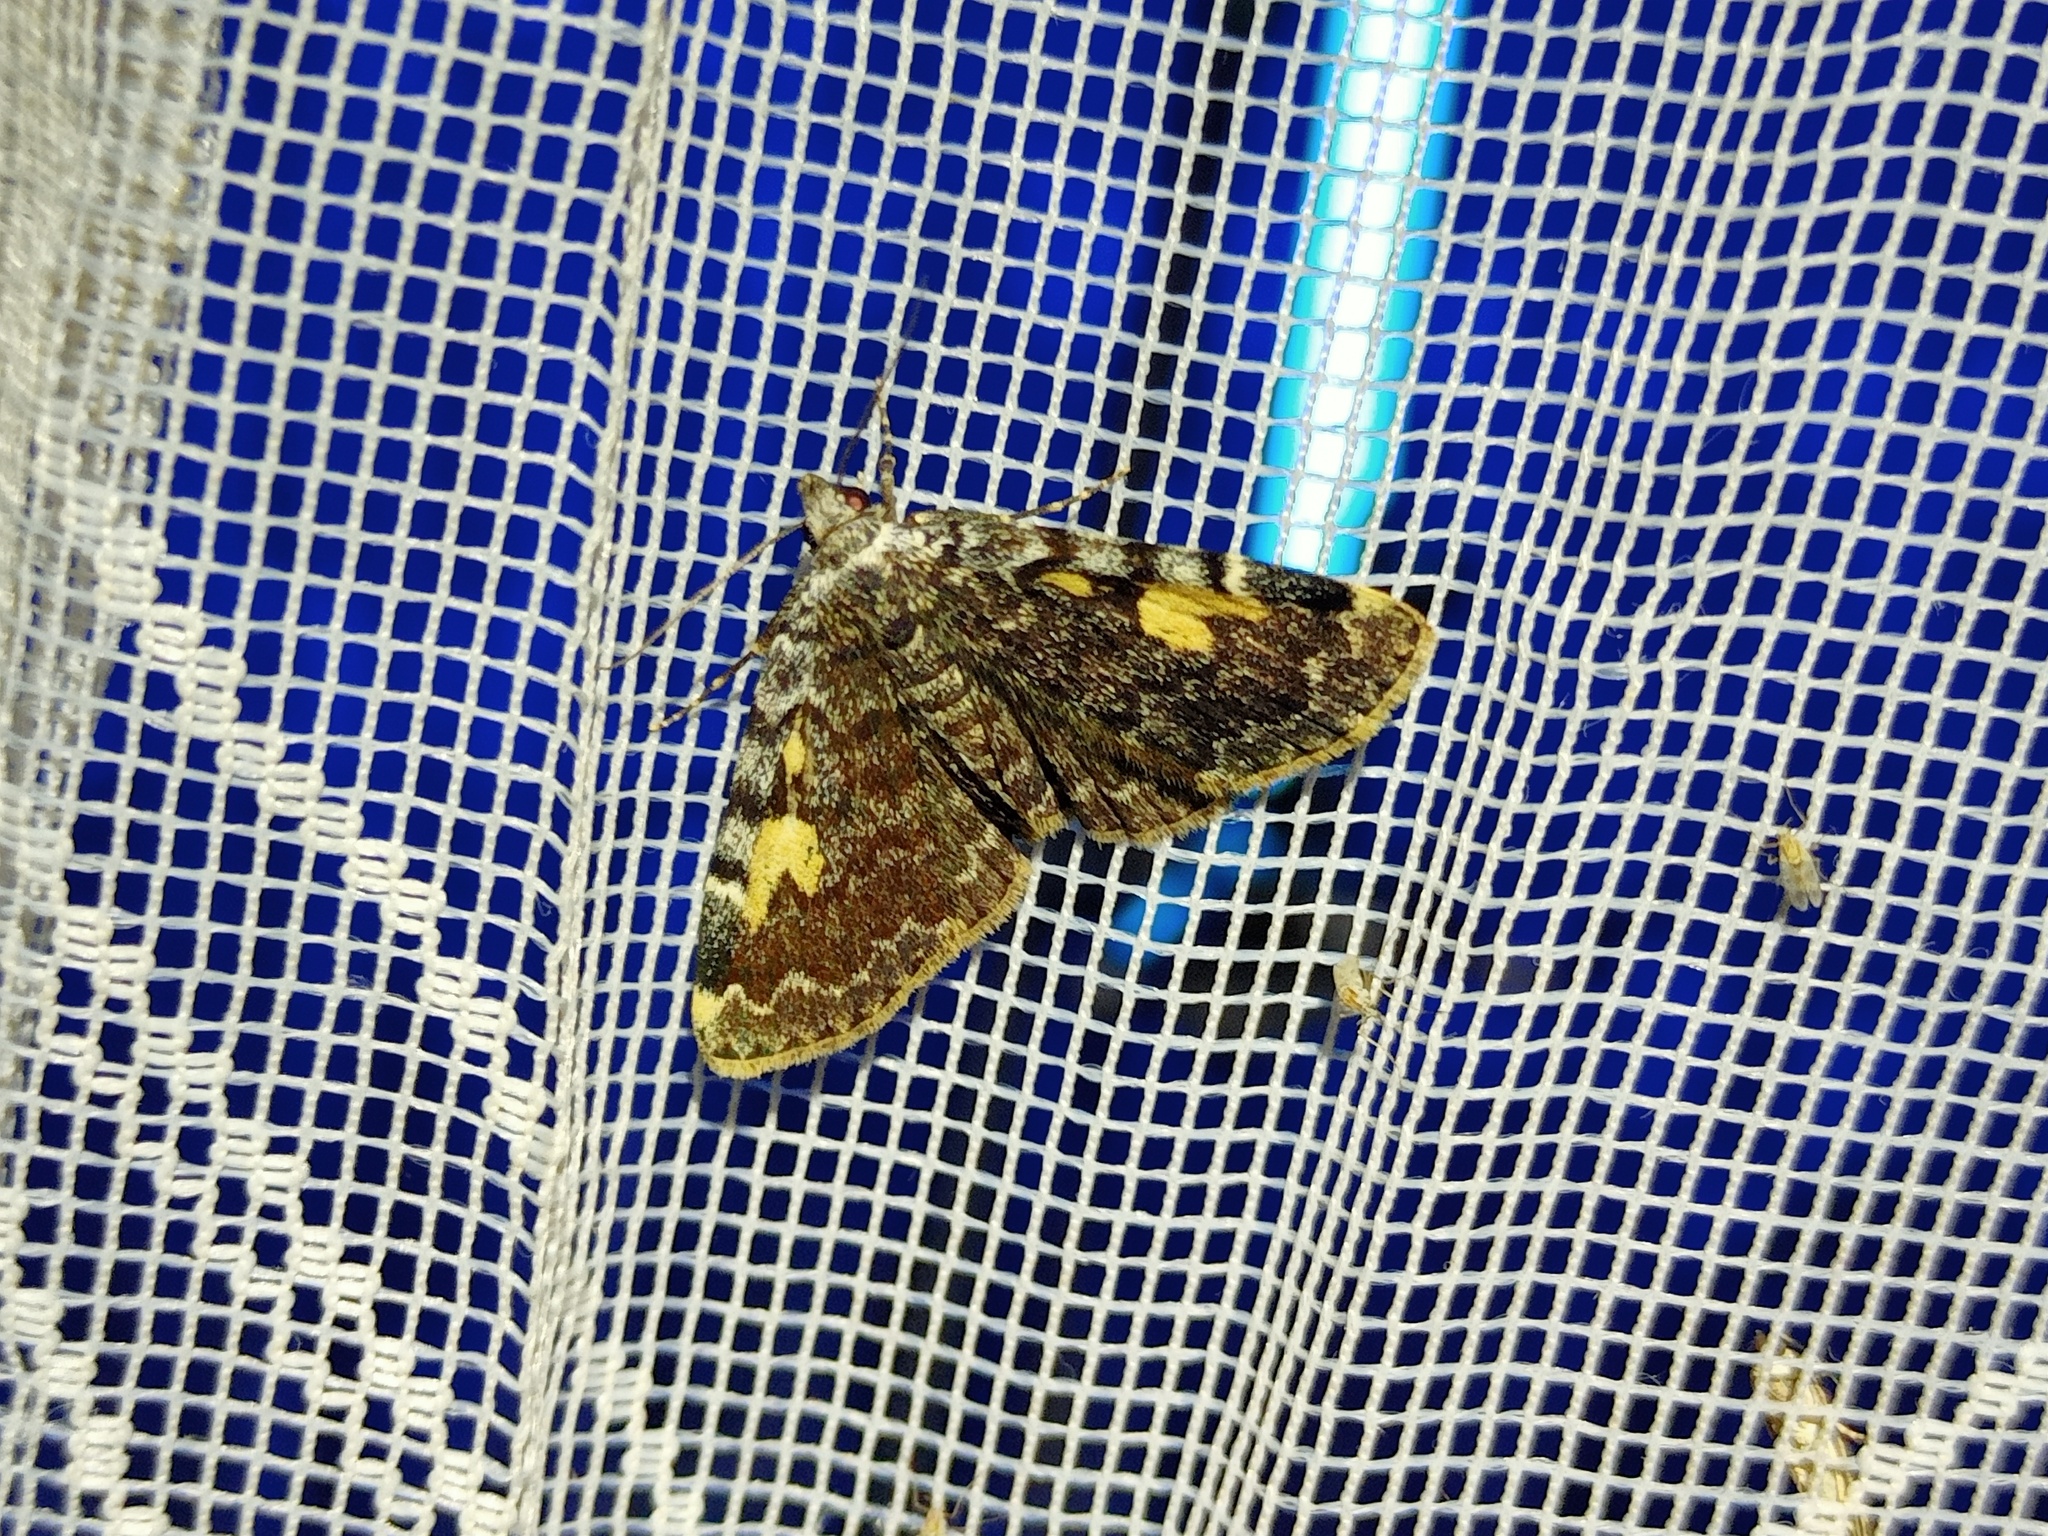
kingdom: Animalia
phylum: Arthropoda
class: Insecta
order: Lepidoptera
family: Erebidae
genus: Idia
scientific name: Idia calvaria
